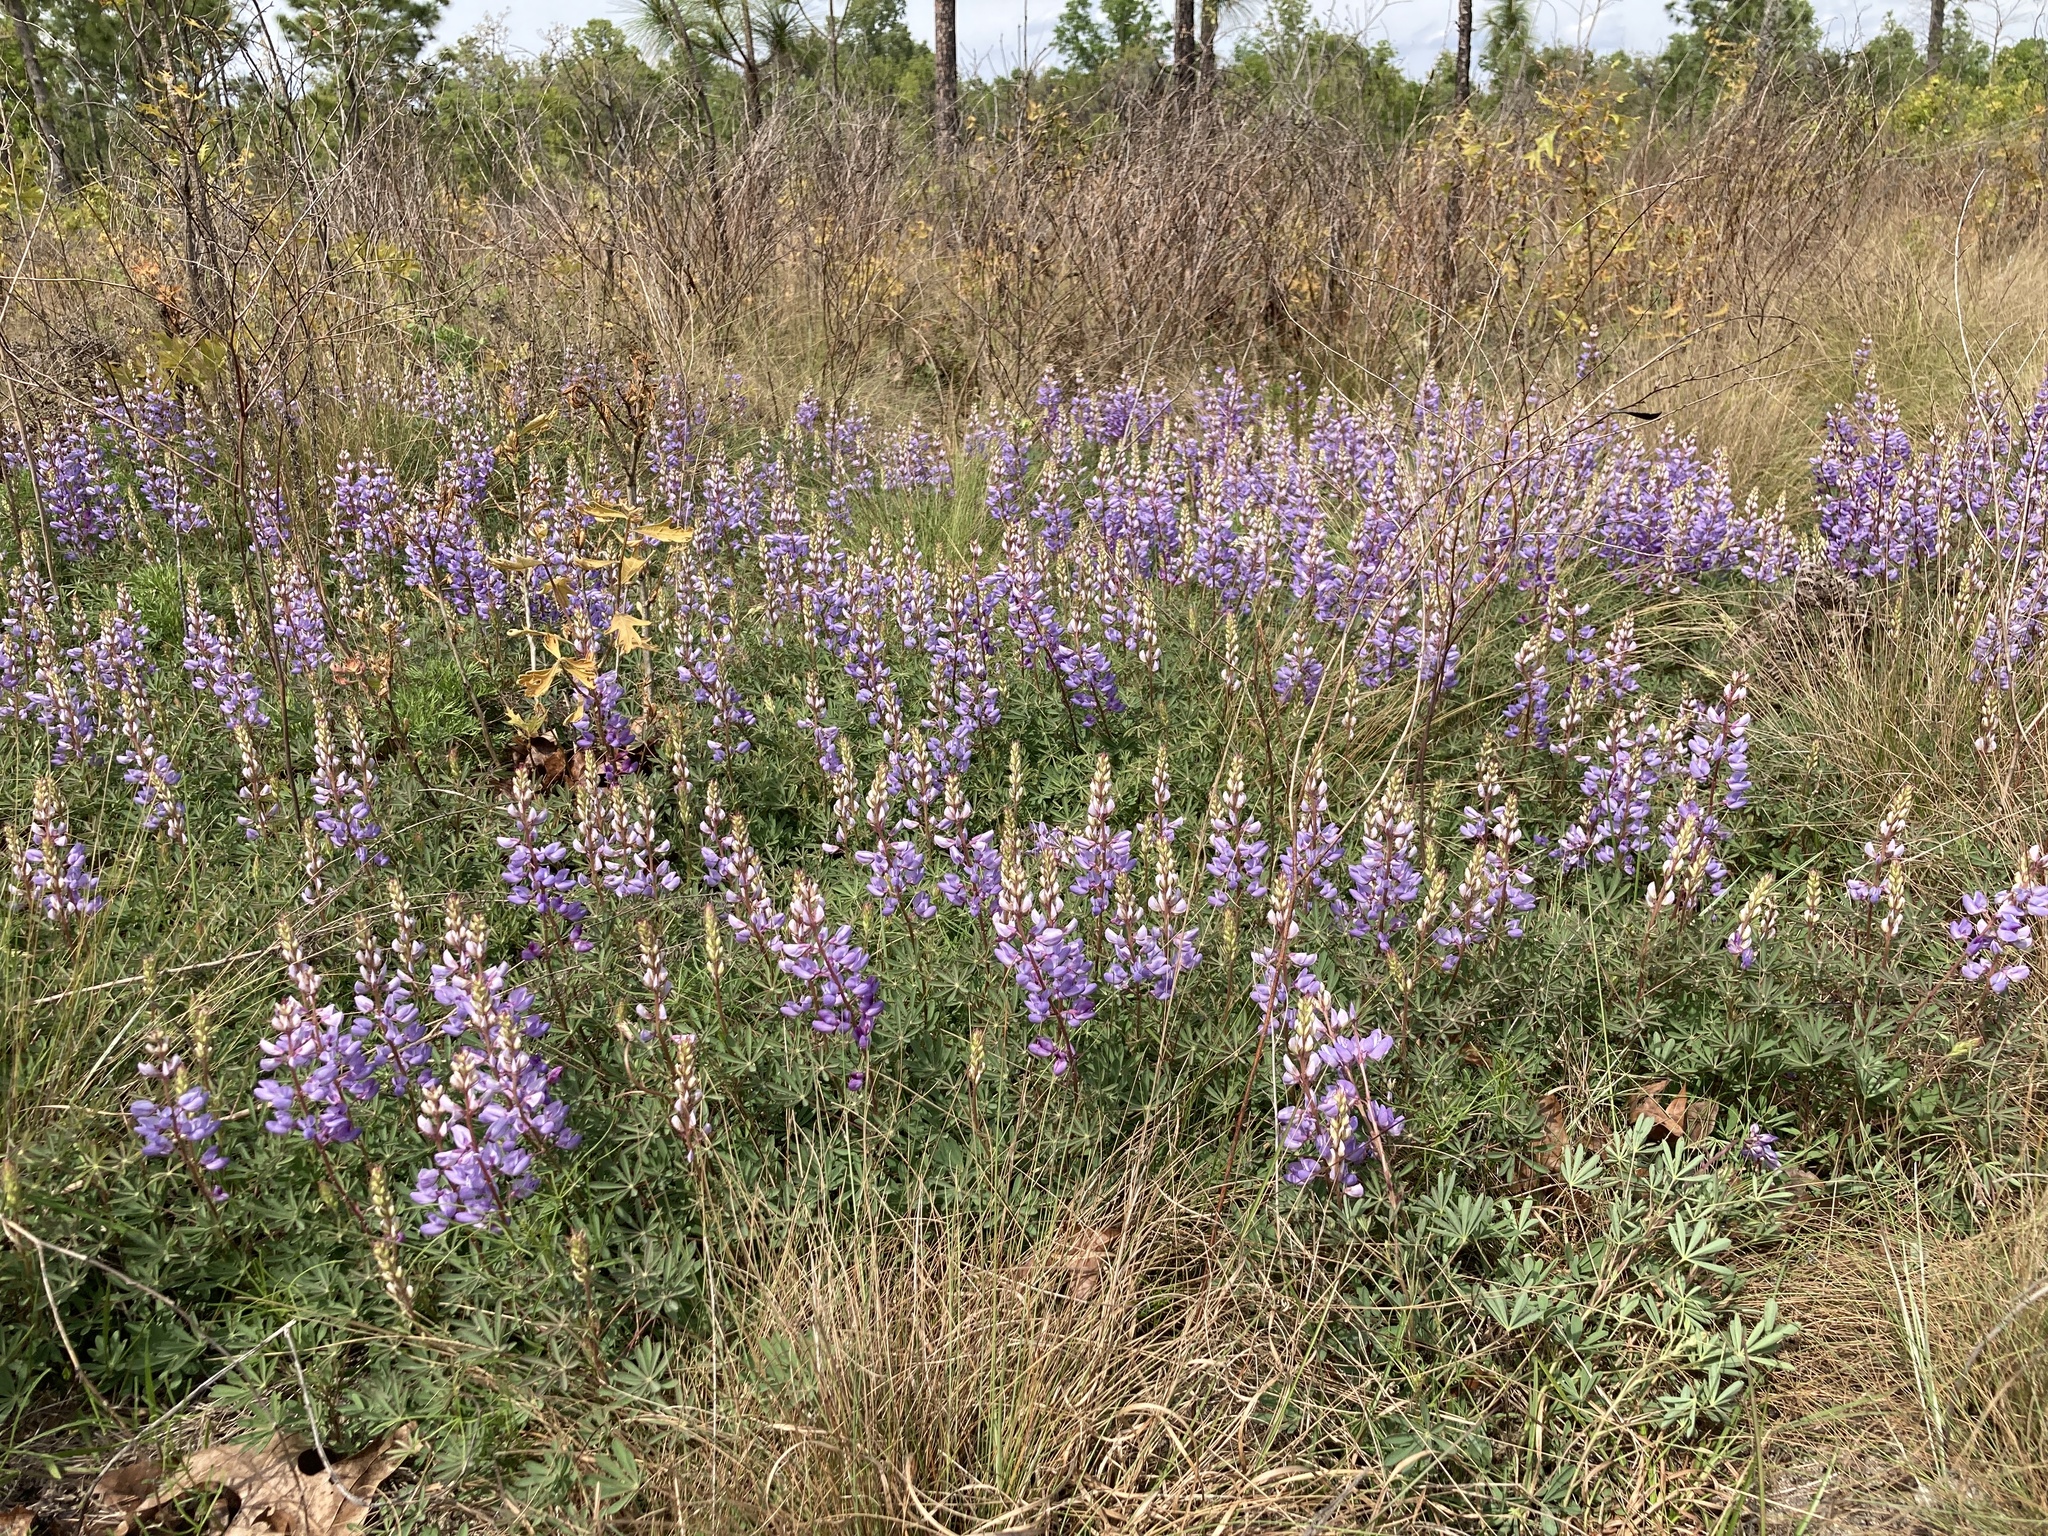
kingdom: Plantae
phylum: Tracheophyta
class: Magnoliopsida
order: Fabales
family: Fabaceae
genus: Lupinus
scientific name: Lupinus perennis
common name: Sundial lupine
